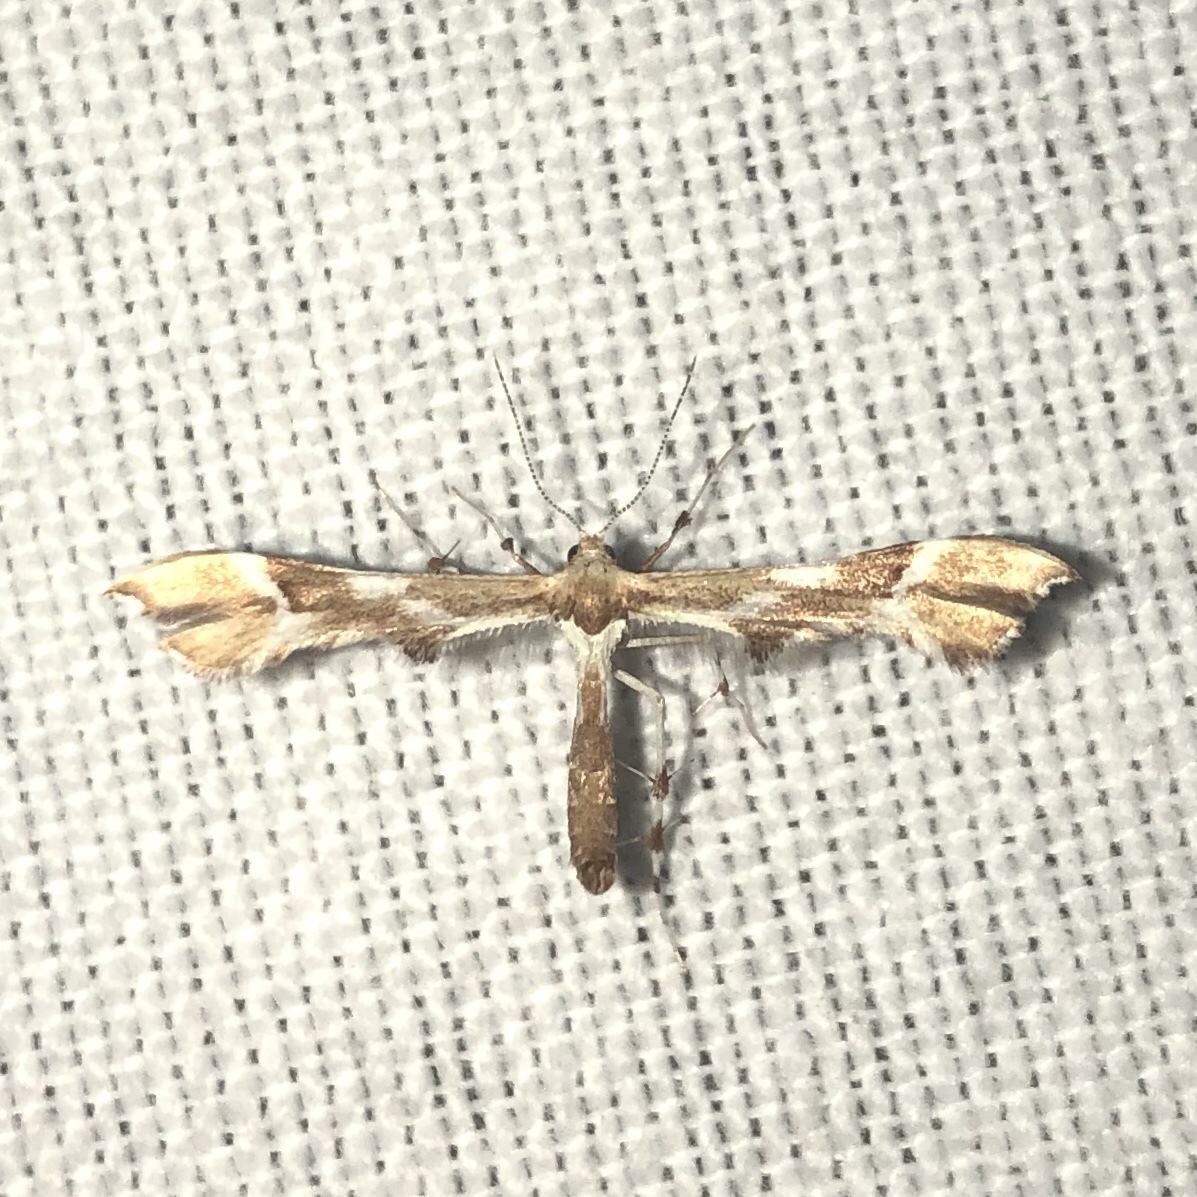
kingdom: Animalia
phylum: Arthropoda
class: Insecta
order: Lepidoptera
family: Pterophoridae
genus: Cnaemidophorus
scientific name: Cnaemidophorus rhododactyla
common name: Rose plume
